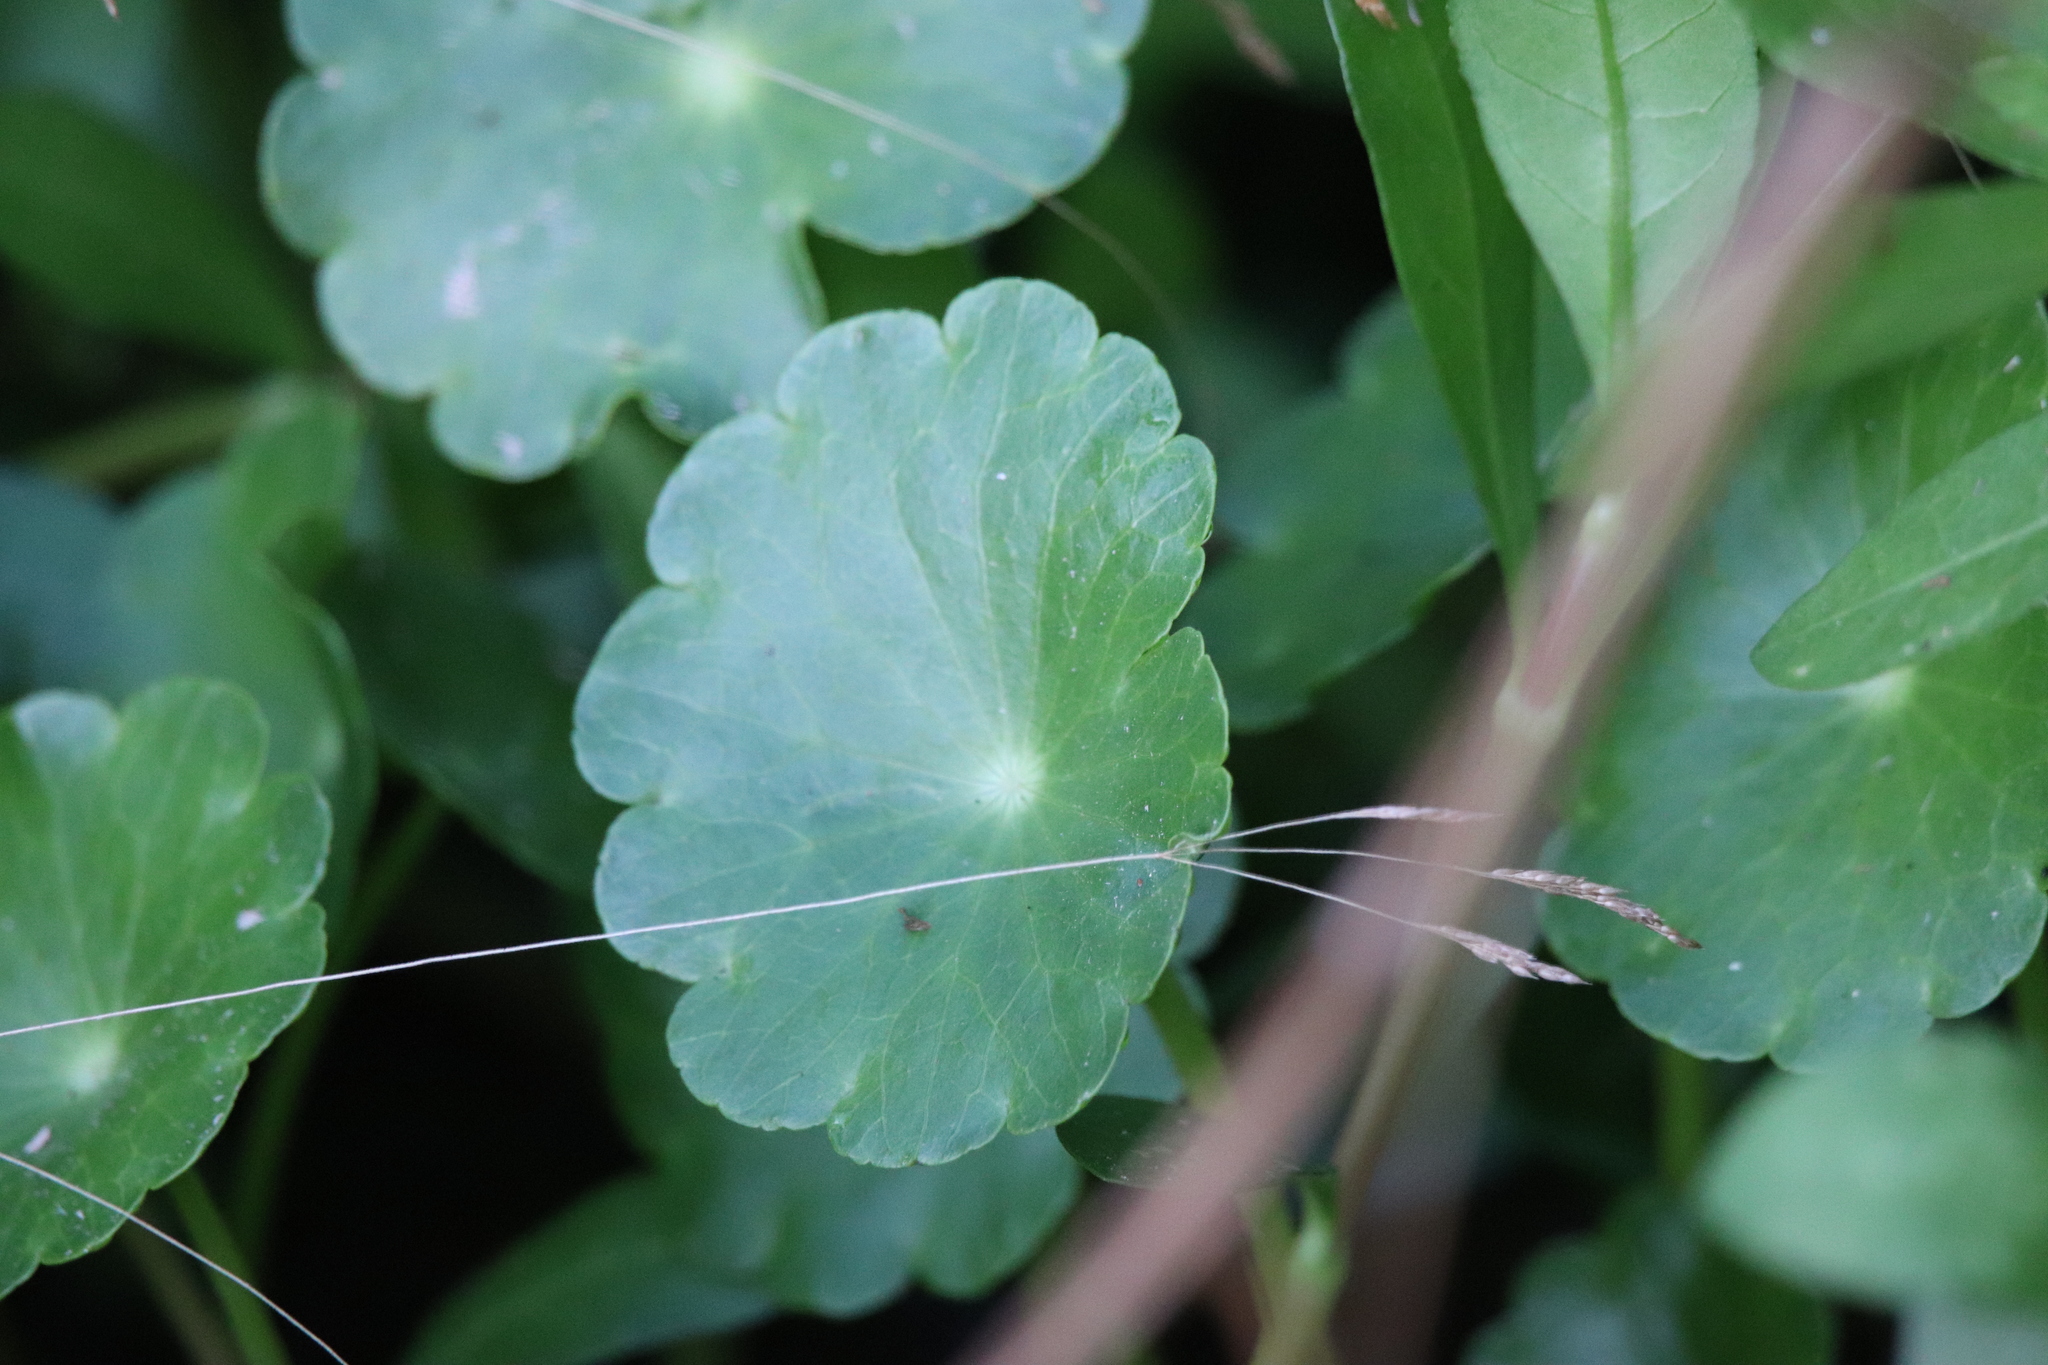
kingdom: Plantae
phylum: Tracheophyta
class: Magnoliopsida
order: Apiales
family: Araliaceae
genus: Hydrocotyle
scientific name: Hydrocotyle bonariensis
